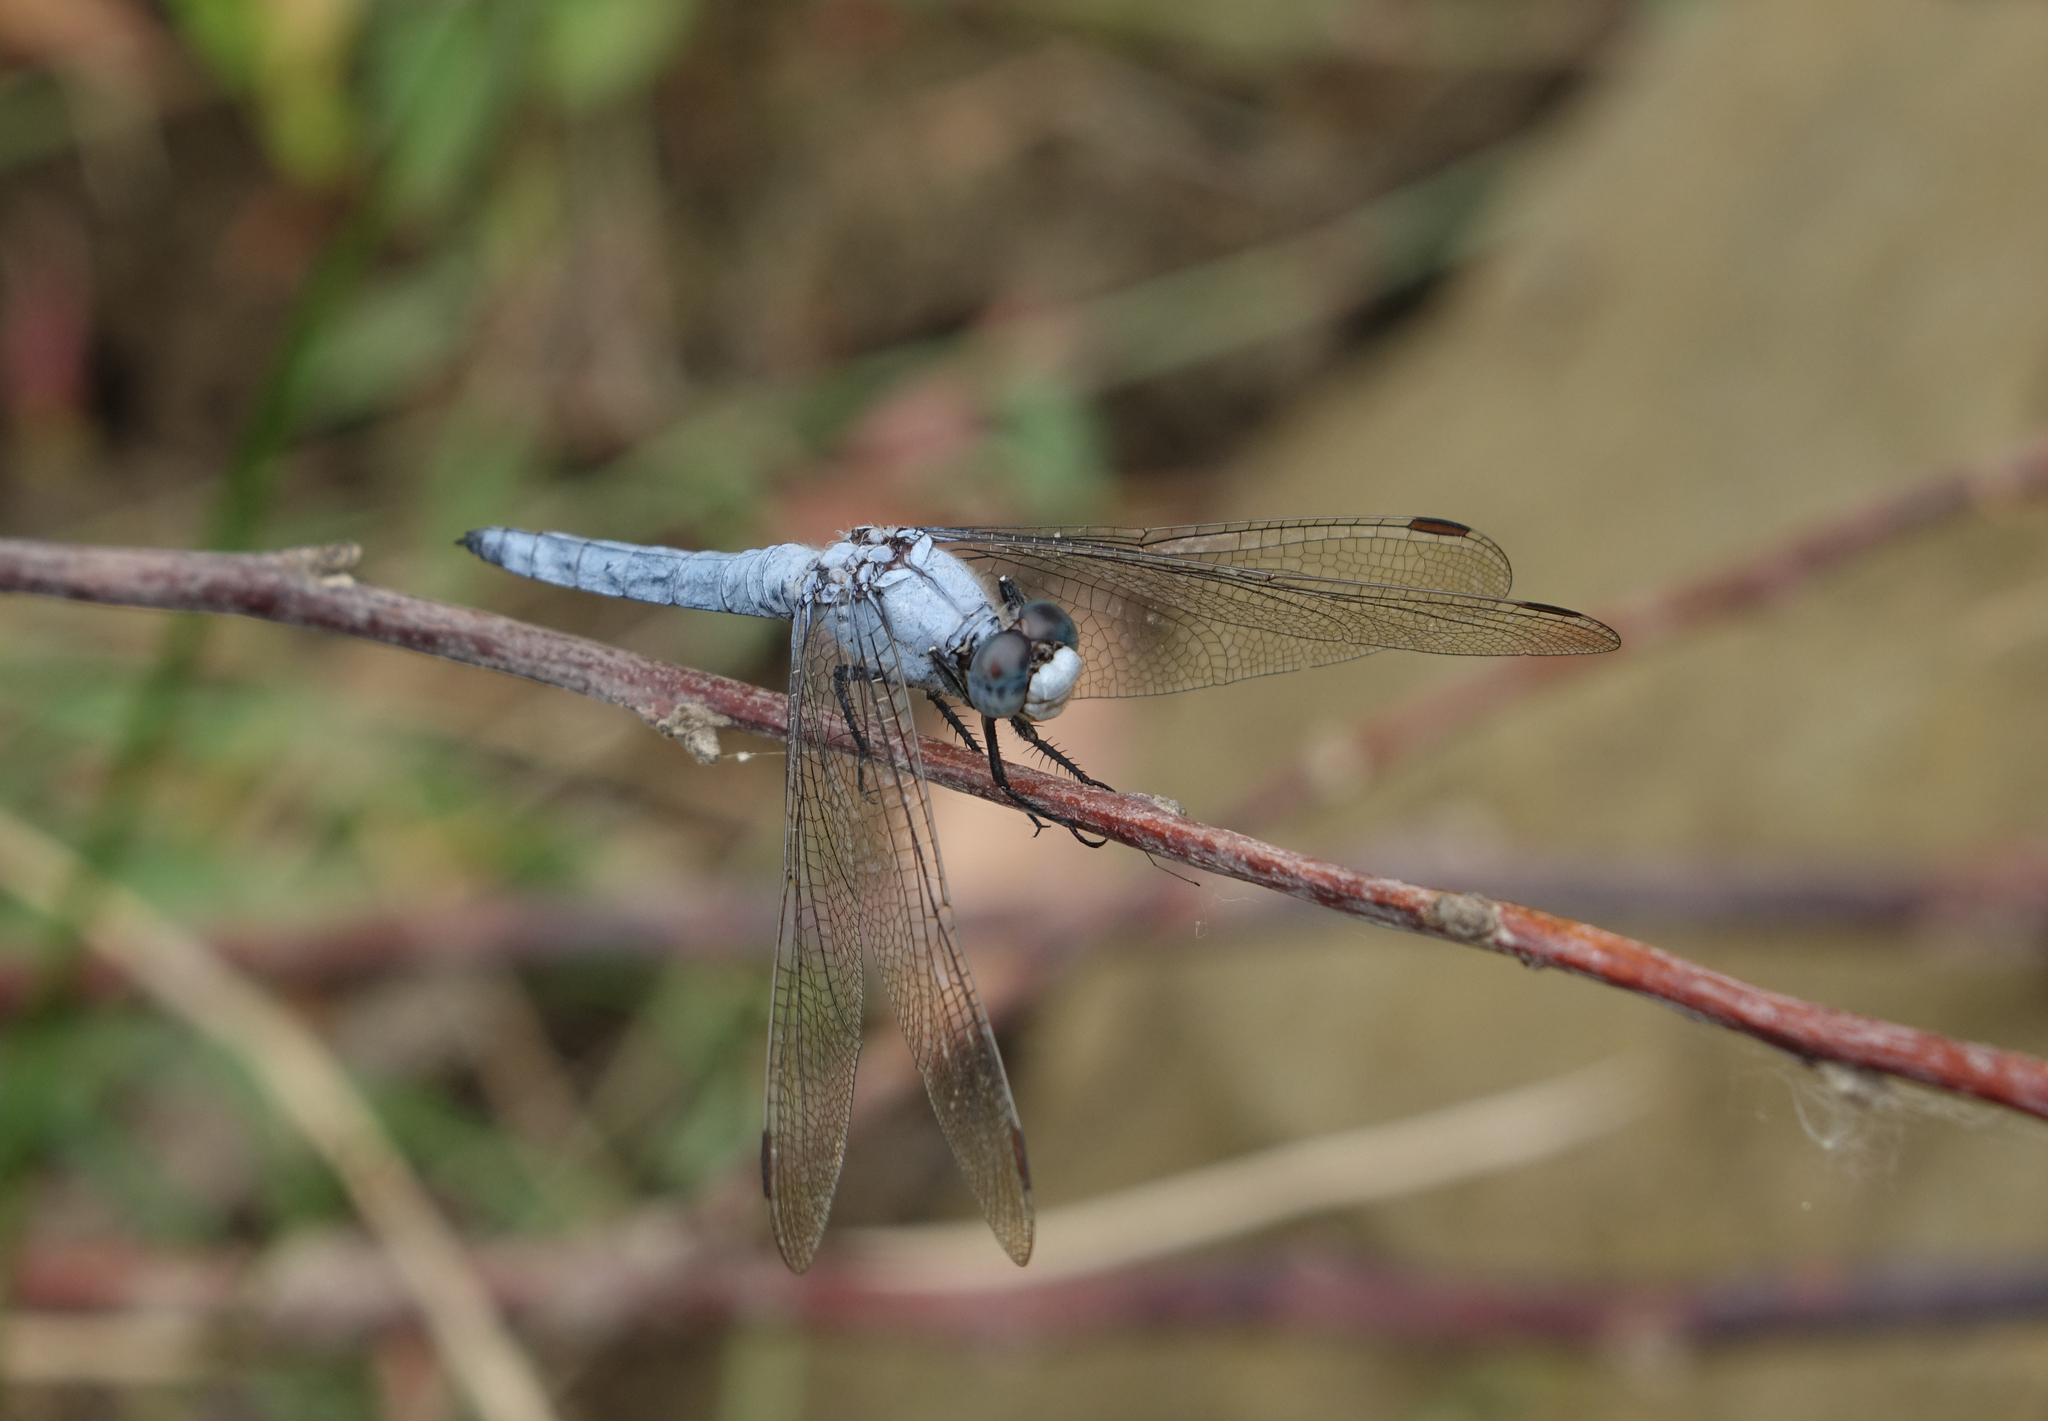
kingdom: Animalia
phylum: Arthropoda
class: Insecta
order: Odonata
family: Libellulidae
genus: Orthetrum
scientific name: Orthetrum brunneum
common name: Southern skimmer
